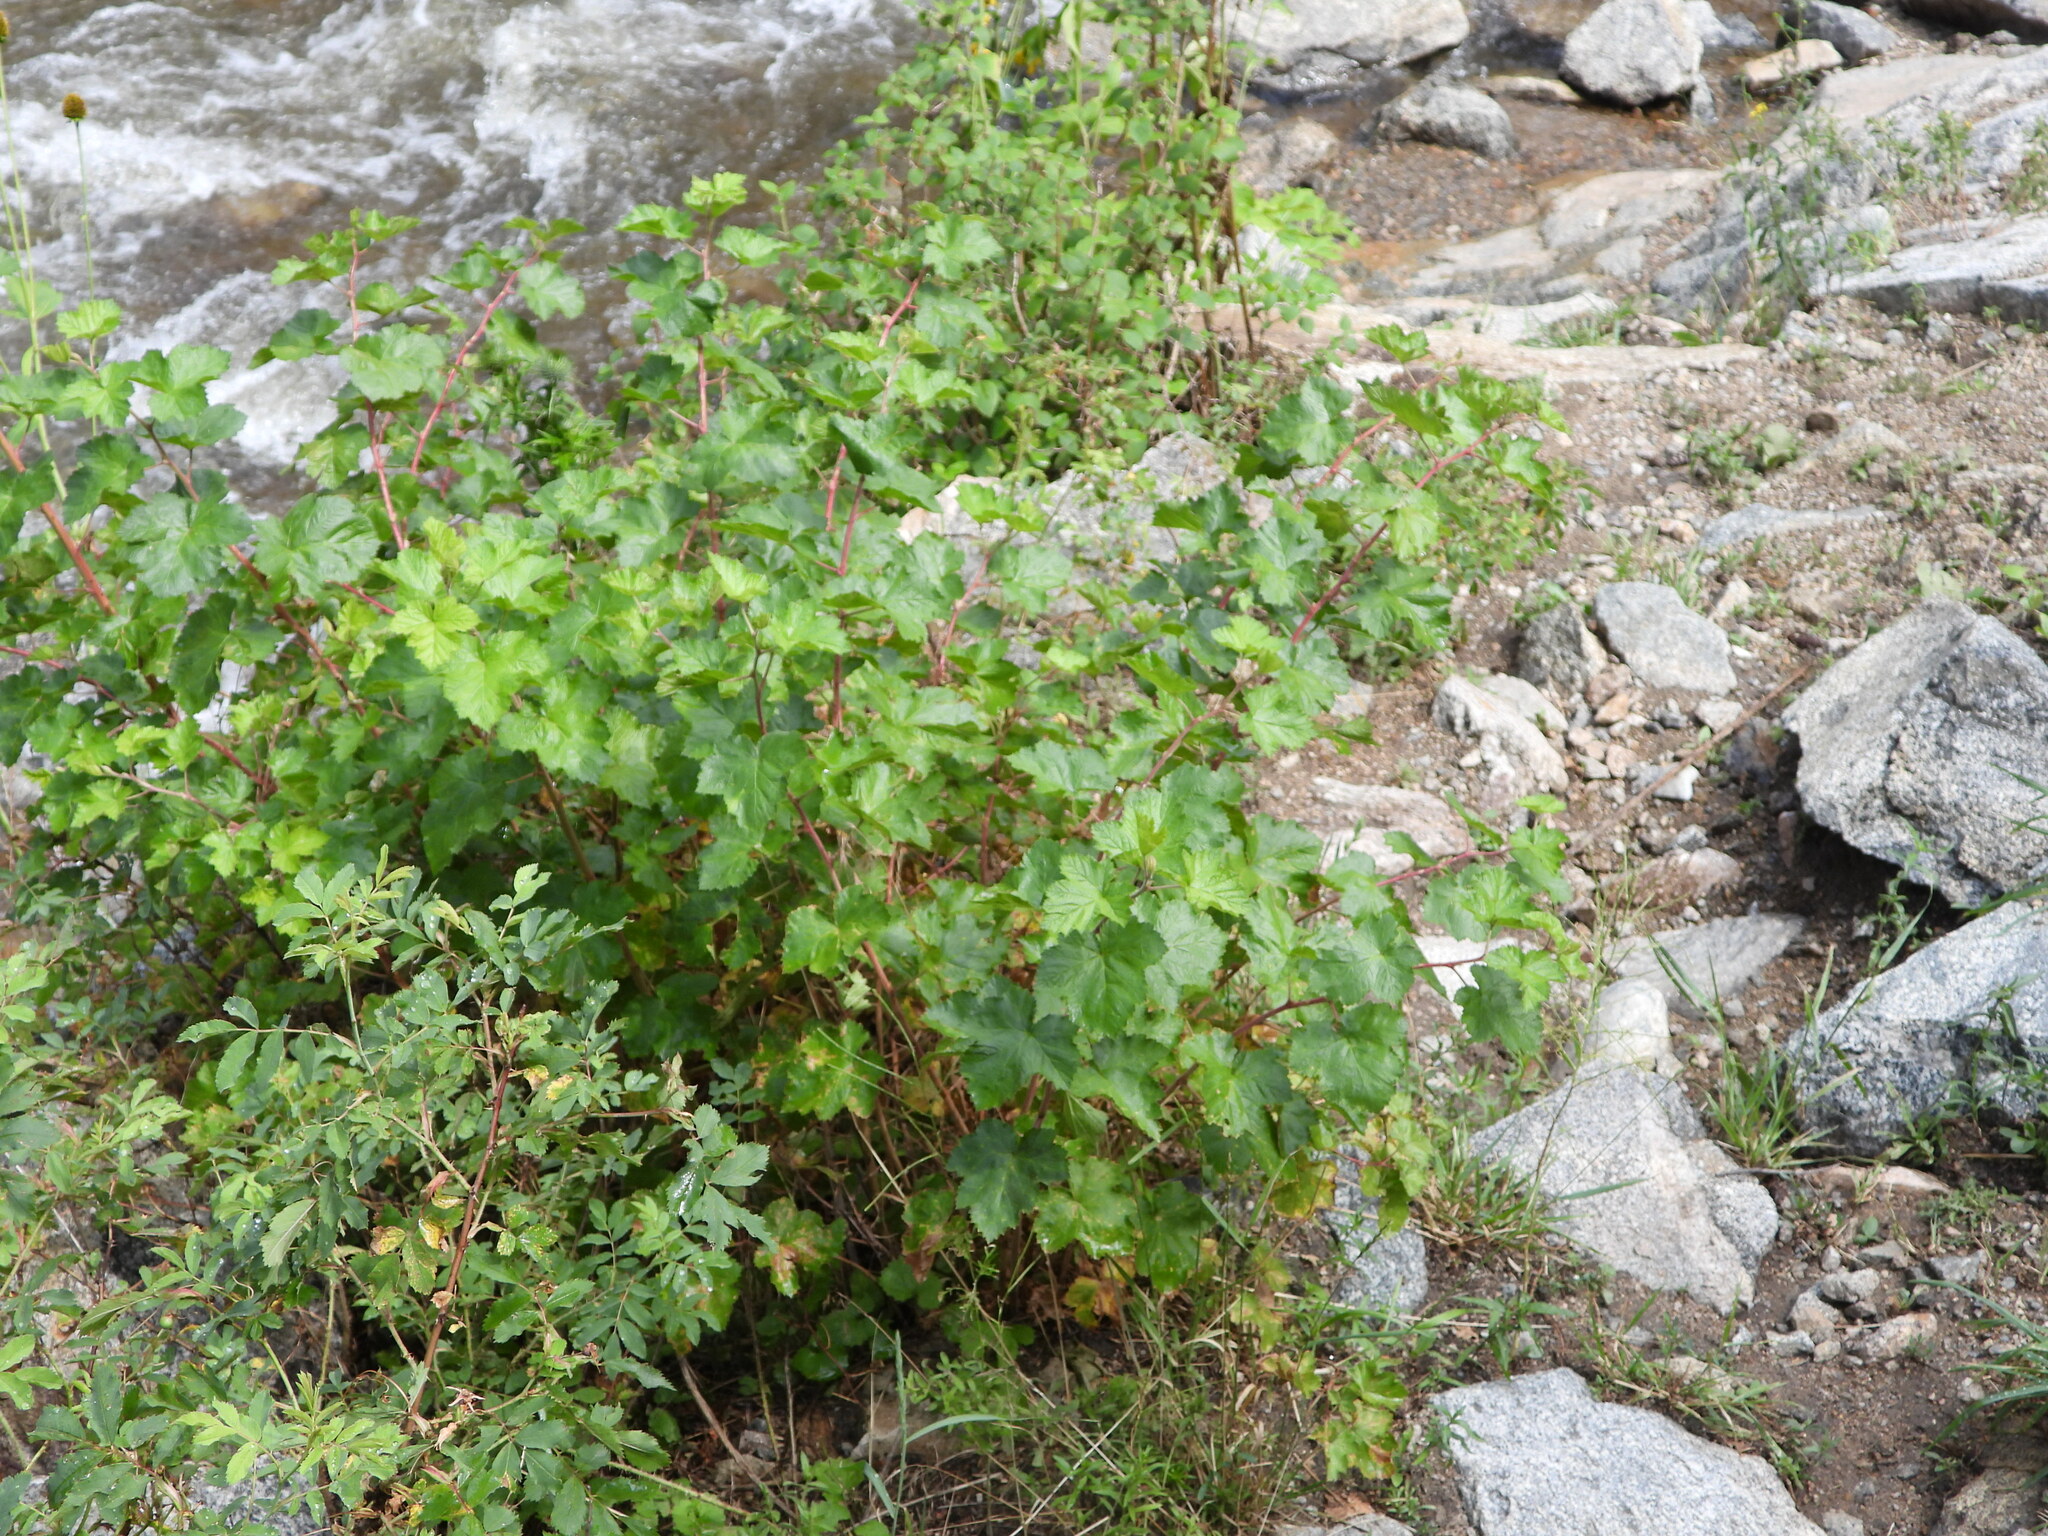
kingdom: Plantae
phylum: Tracheophyta
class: Magnoliopsida
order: Rosales
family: Rosaceae
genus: Rubus
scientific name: Rubus deliciosus
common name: Rocky mountain raspberry
